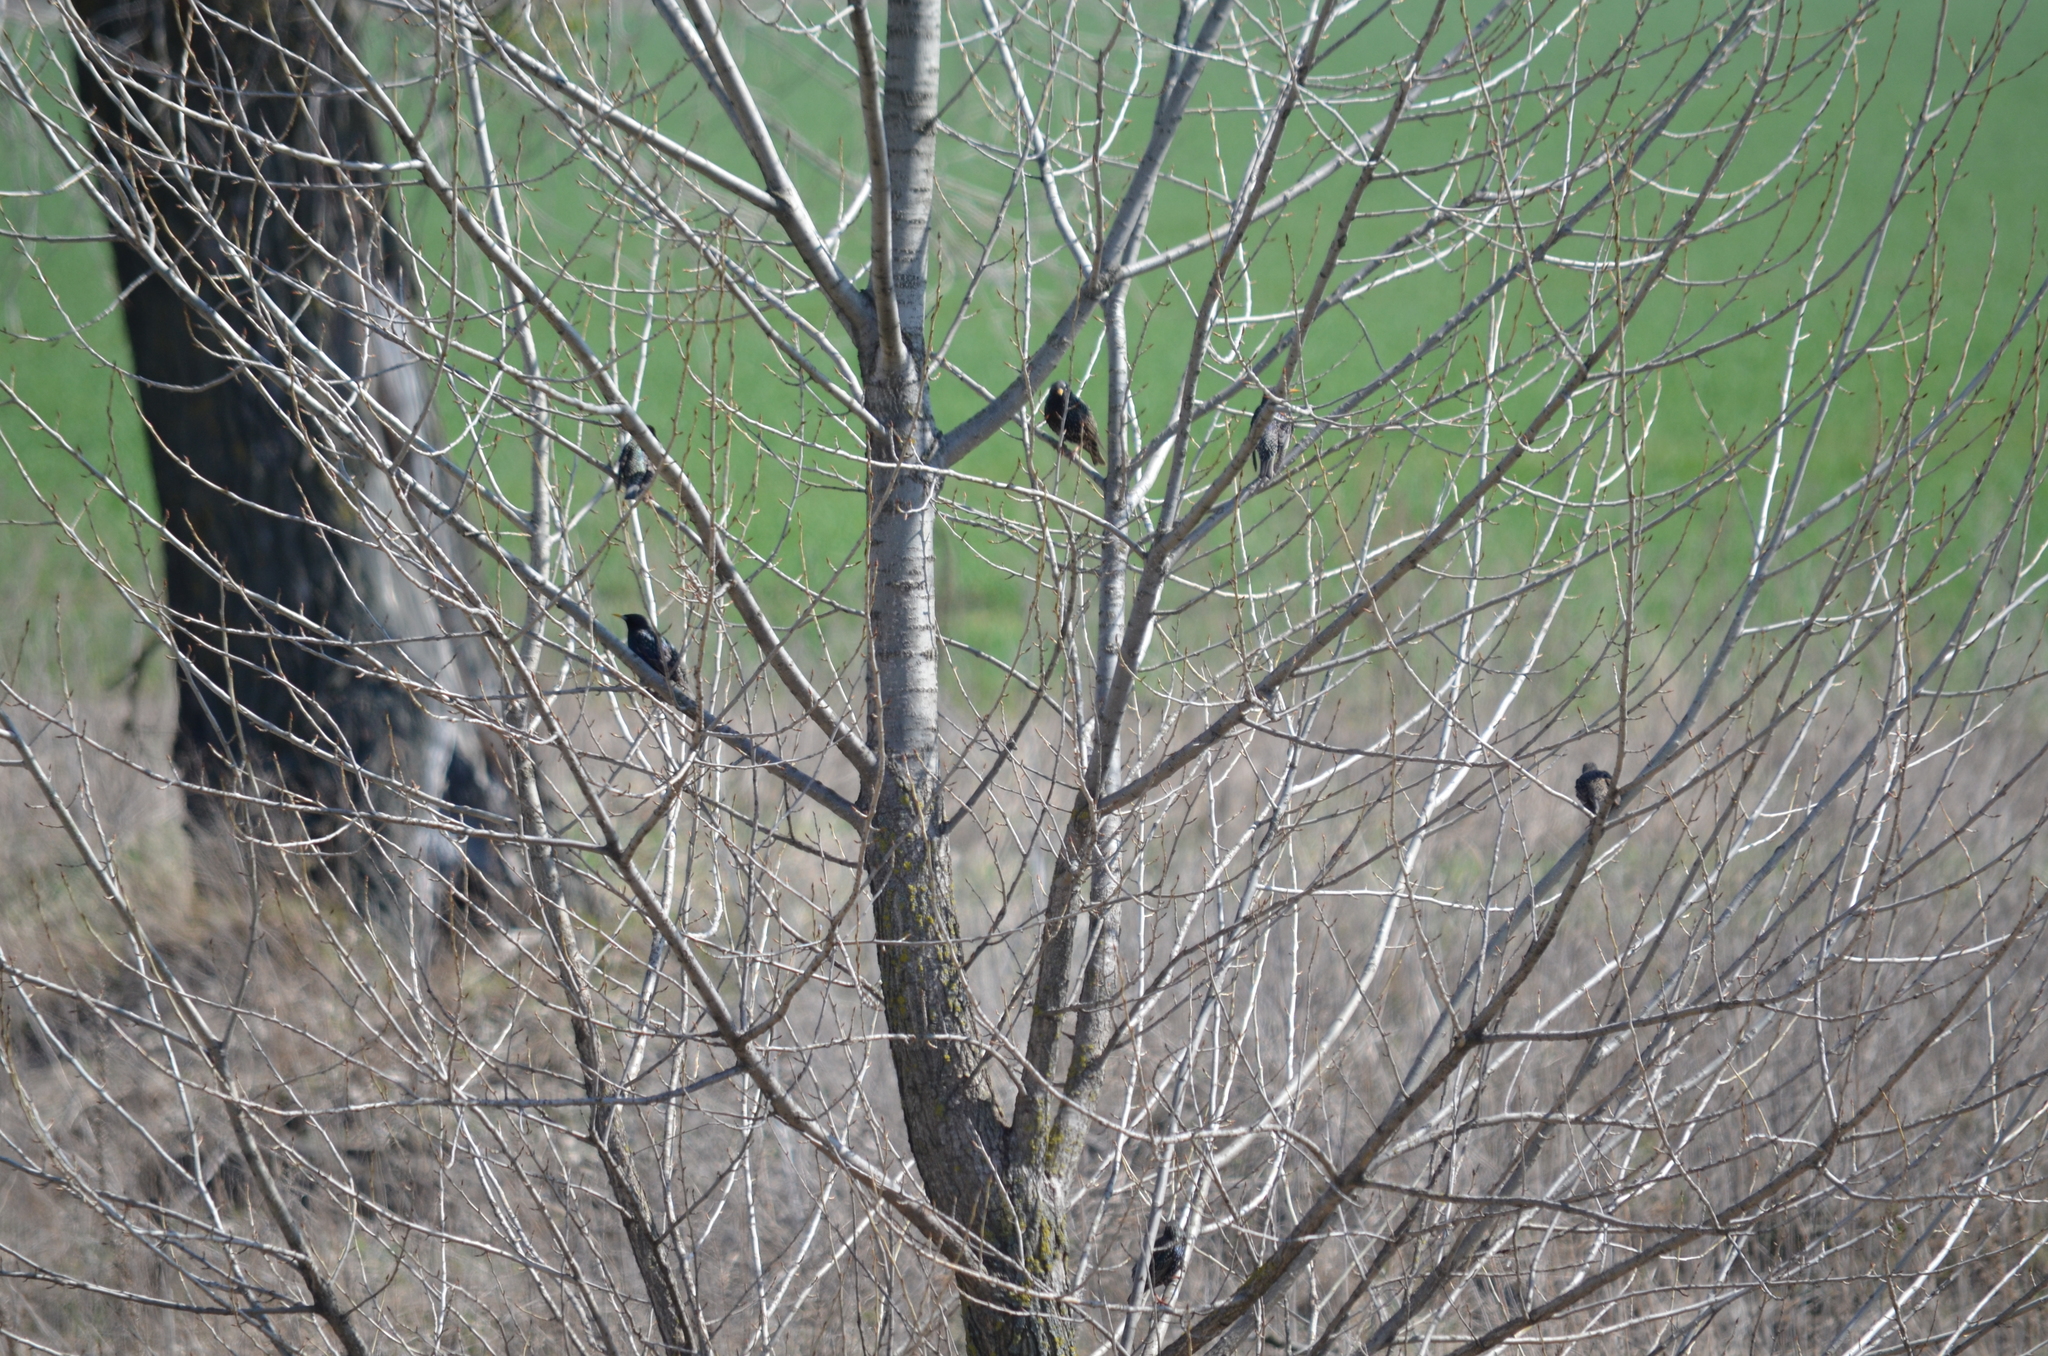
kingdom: Animalia
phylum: Chordata
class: Aves
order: Passeriformes
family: Sturnidae
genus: Sturnus
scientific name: Sturnus vulgaris
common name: Common starling
